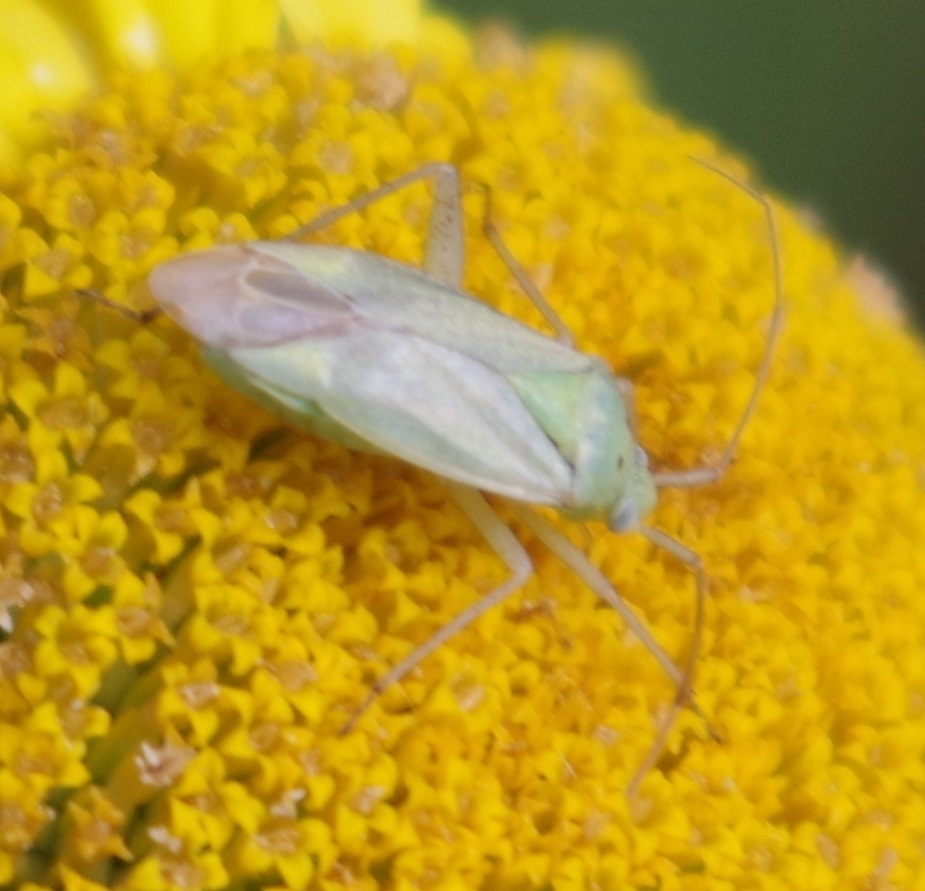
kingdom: Animalia
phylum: Arthropoda
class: Insecta
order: Hemiptera
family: Miridae
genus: Closterotomus
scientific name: Closterotomus norvegicus
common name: Plant bug
